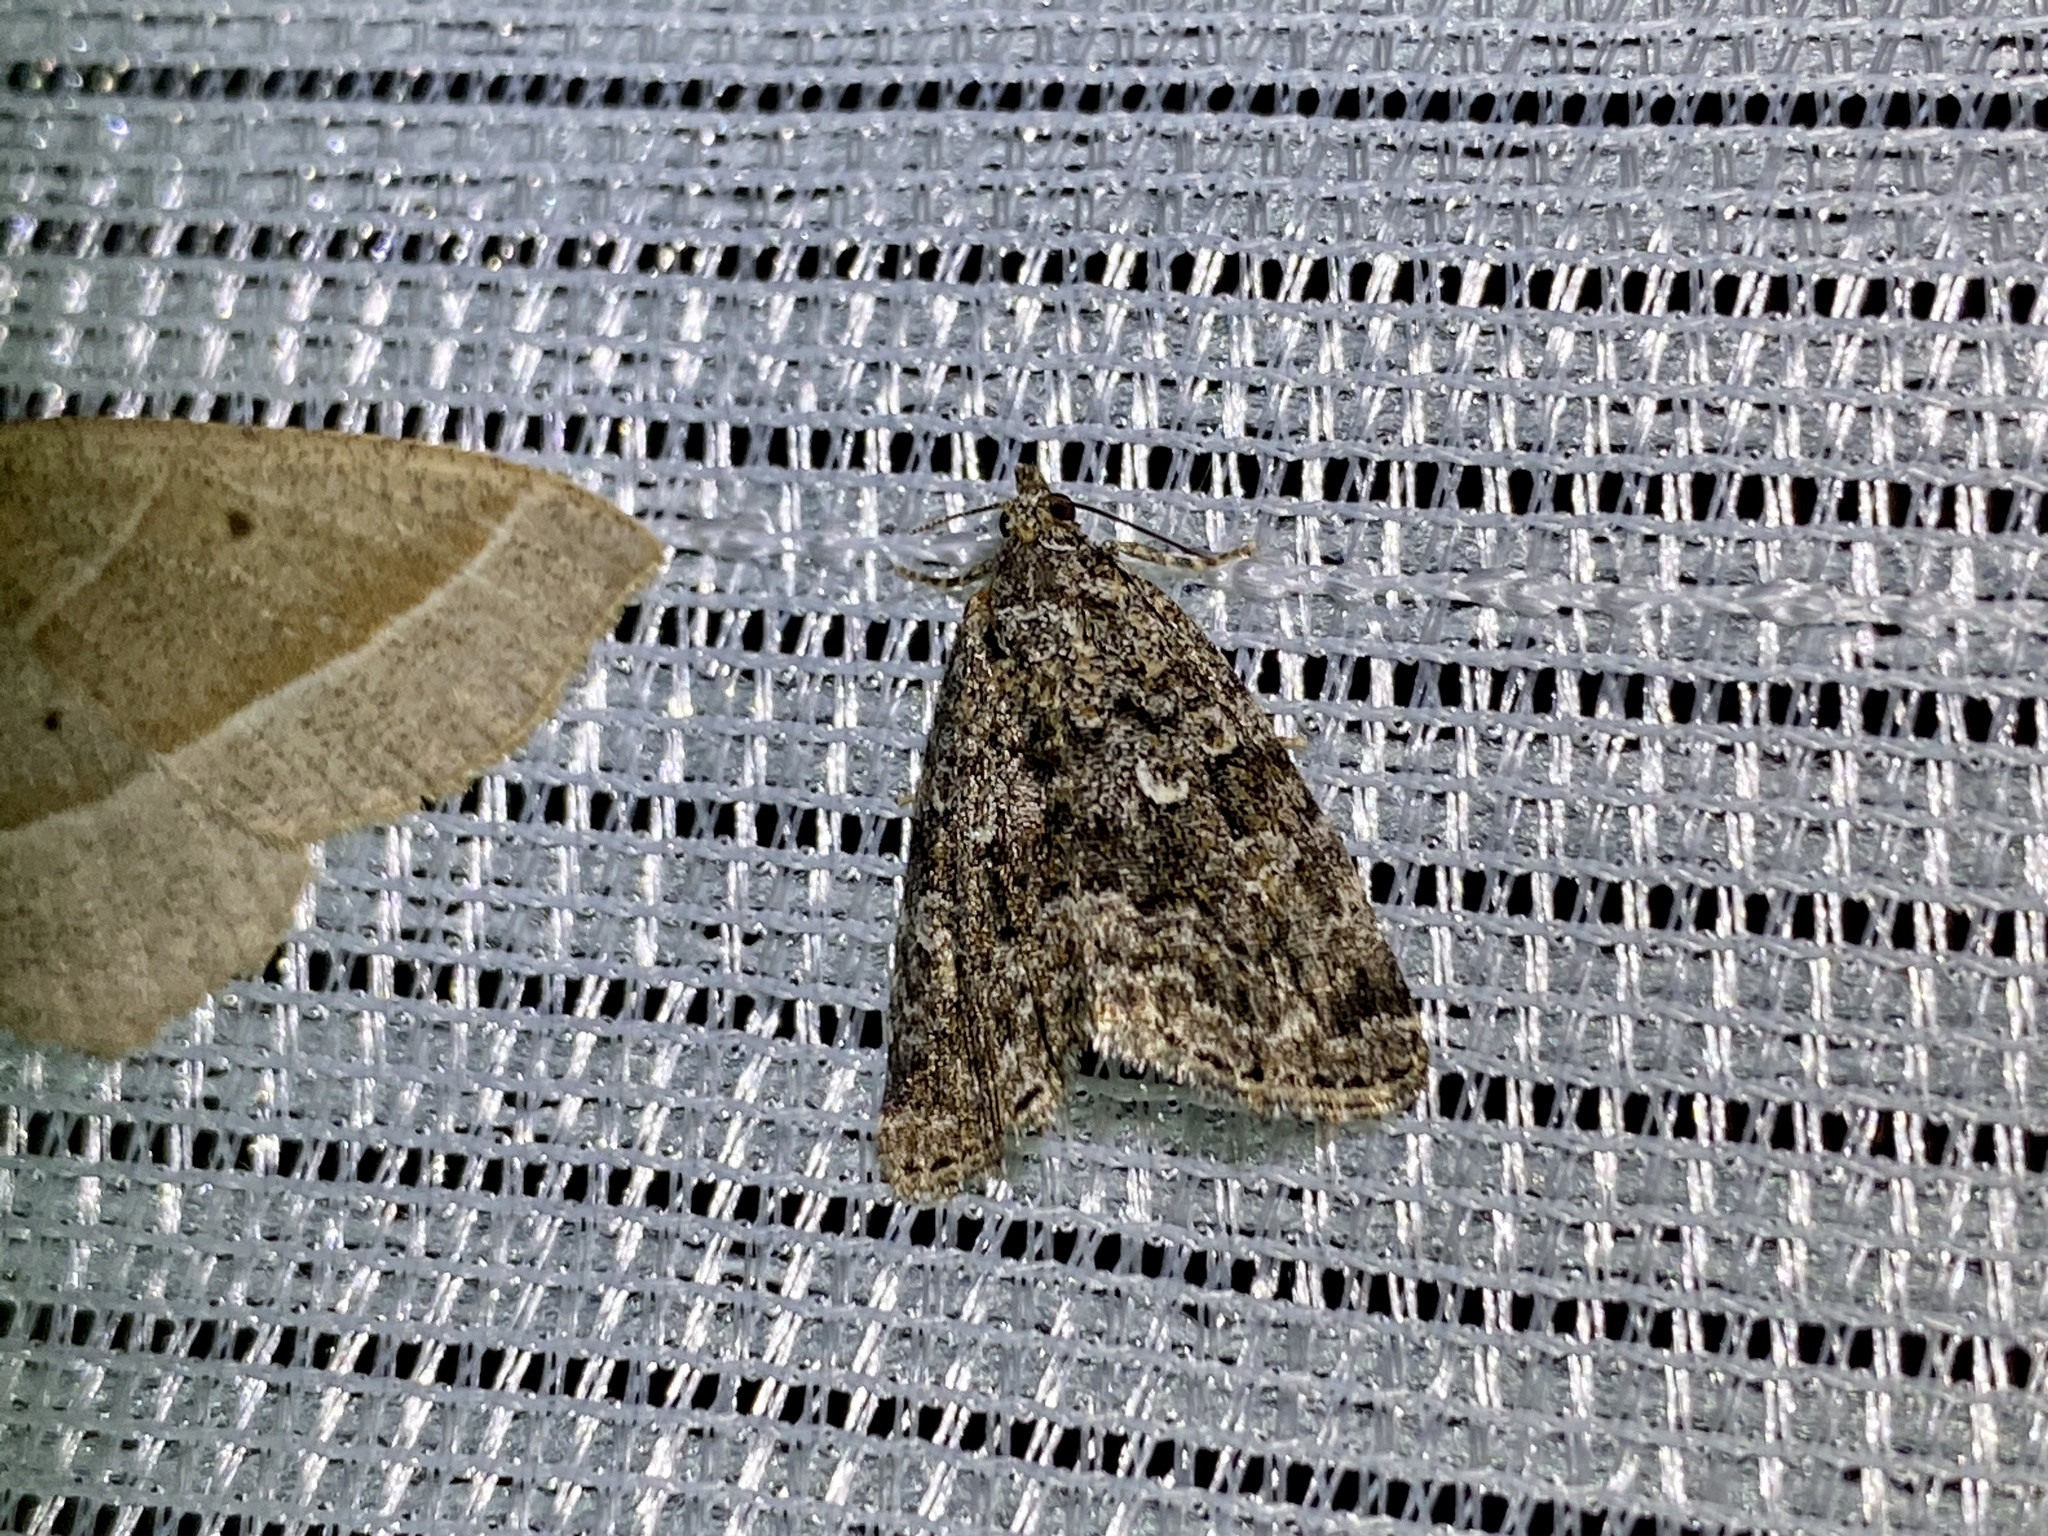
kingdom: Animalia
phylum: Arthropoda
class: Insecta
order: Lepidoptera
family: Noctuidae
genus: Lithacodia
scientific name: Lithacodia distinguenda
